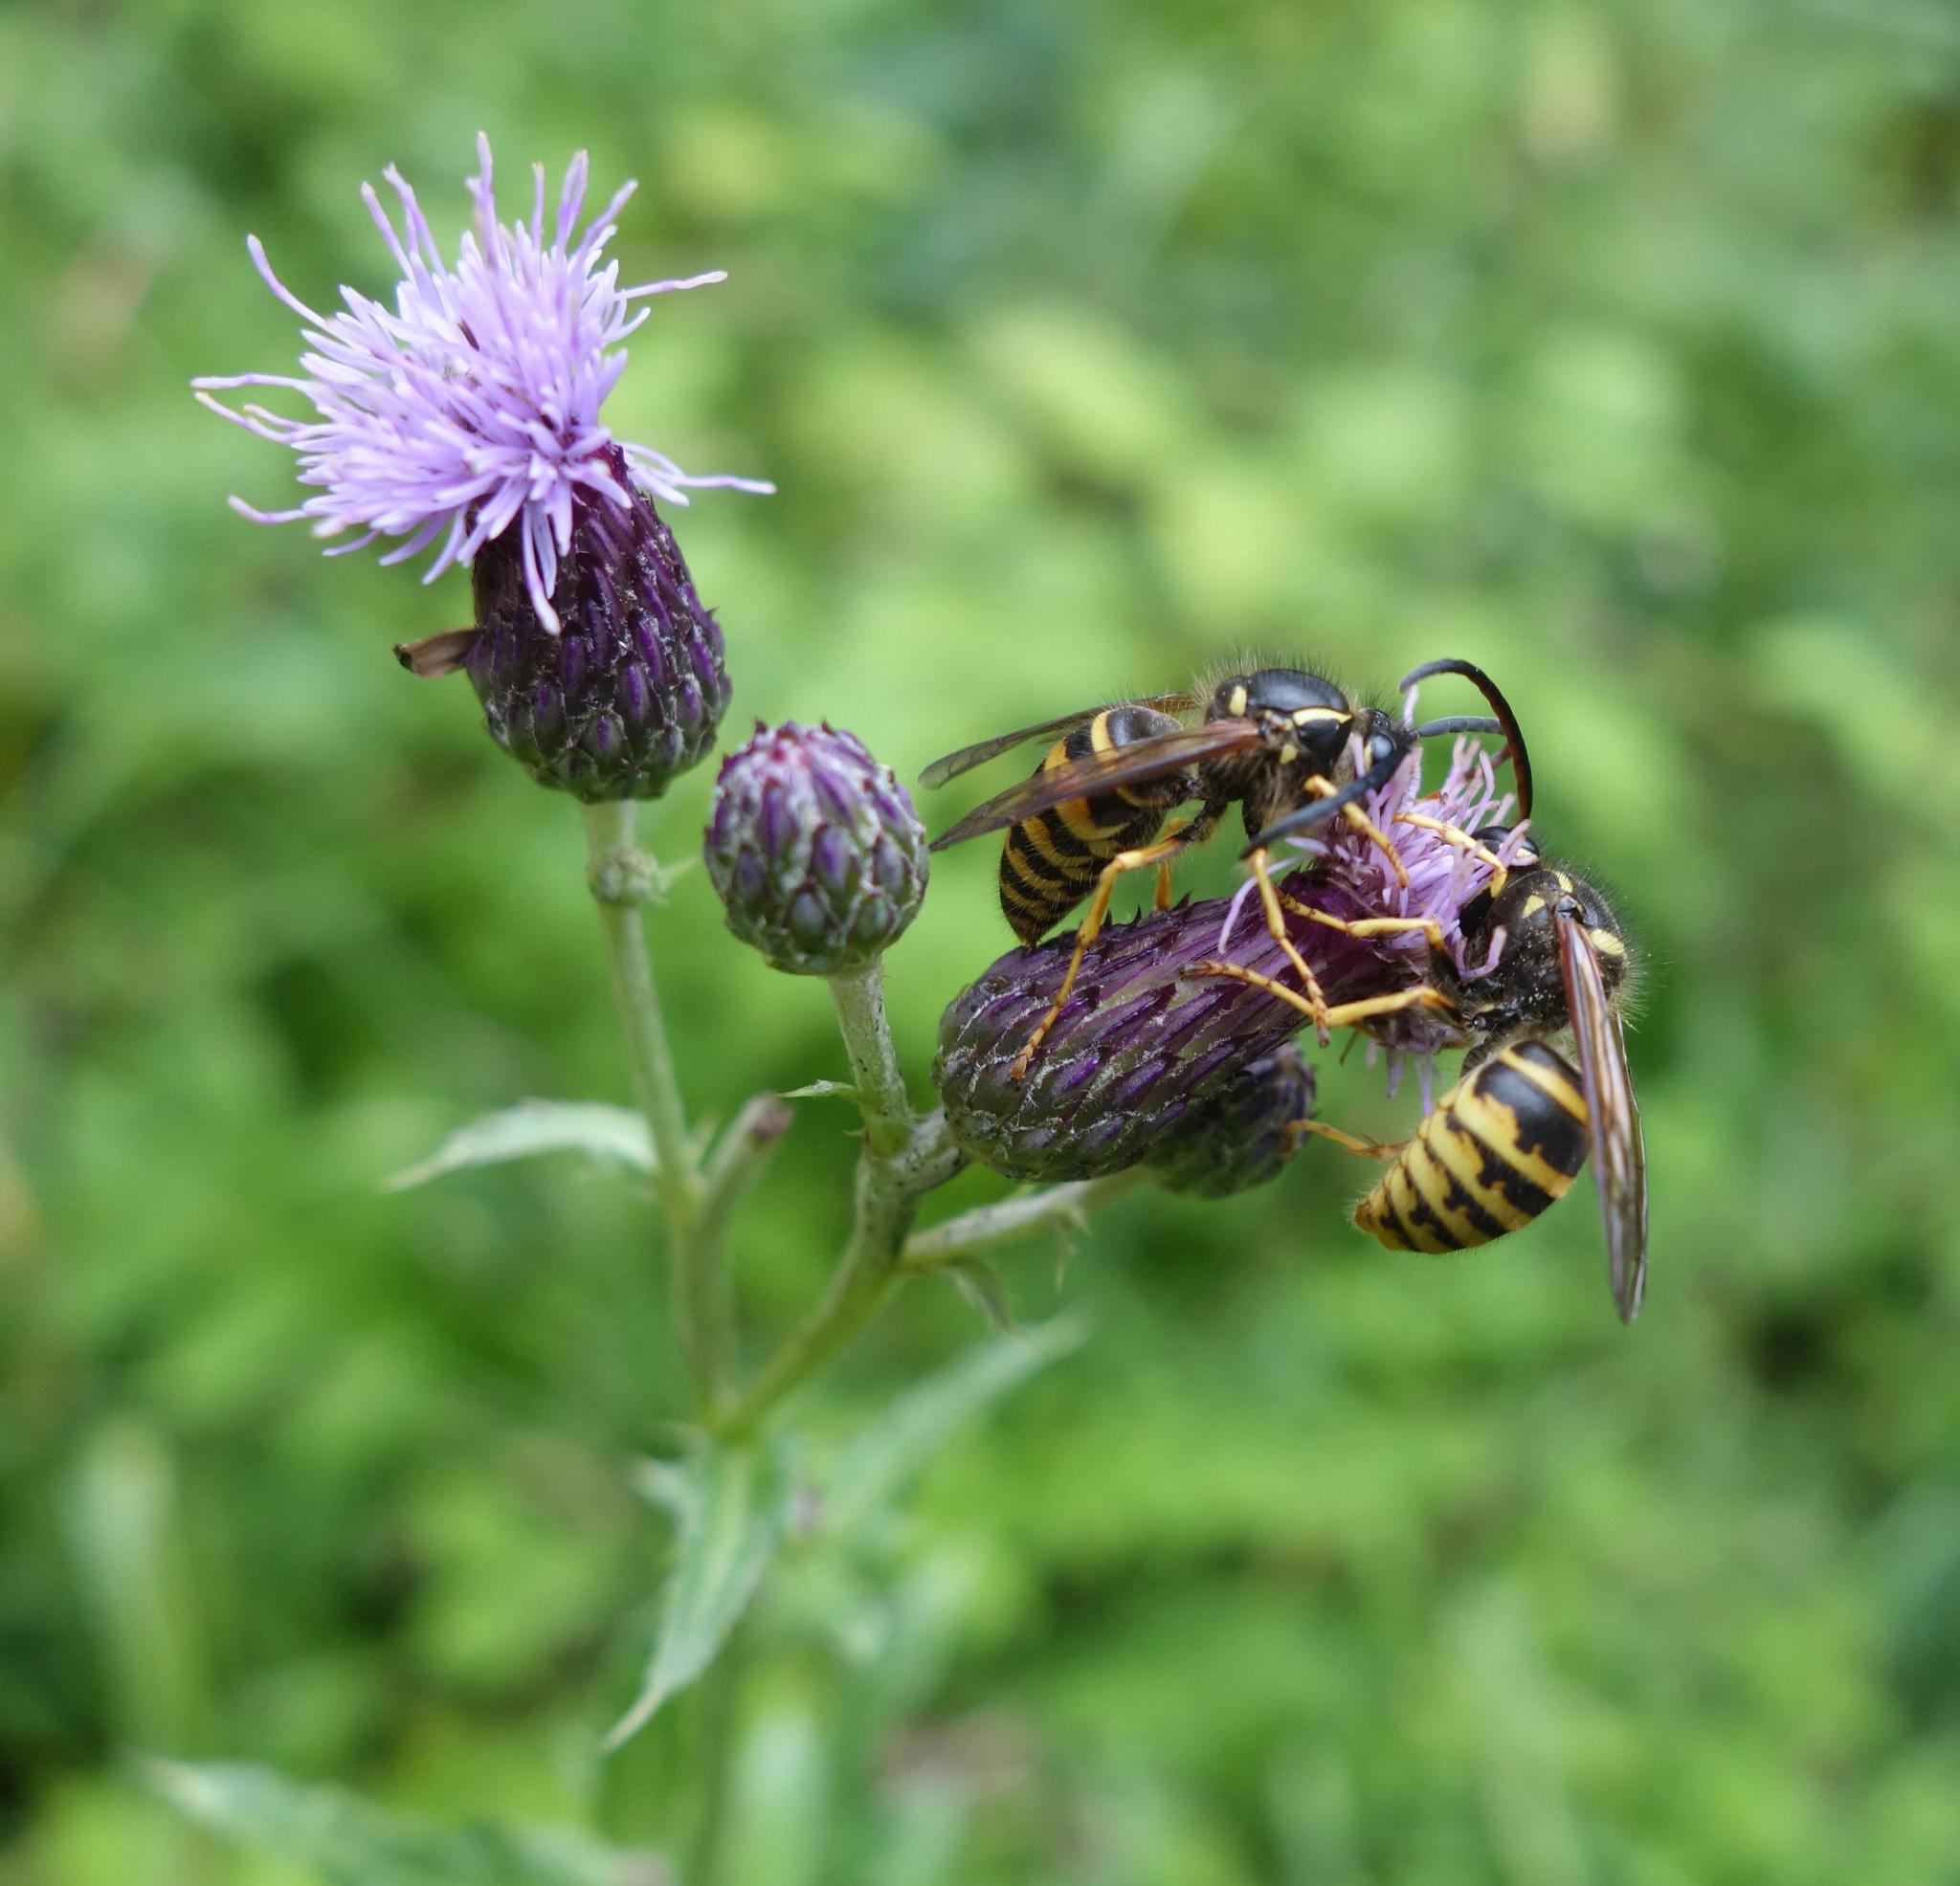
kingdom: Animalia
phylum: Arthropoda
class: Insecta
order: Hymenoptera
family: Vespidae
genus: Dolichovespula
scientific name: Dolichovespula saxonica
